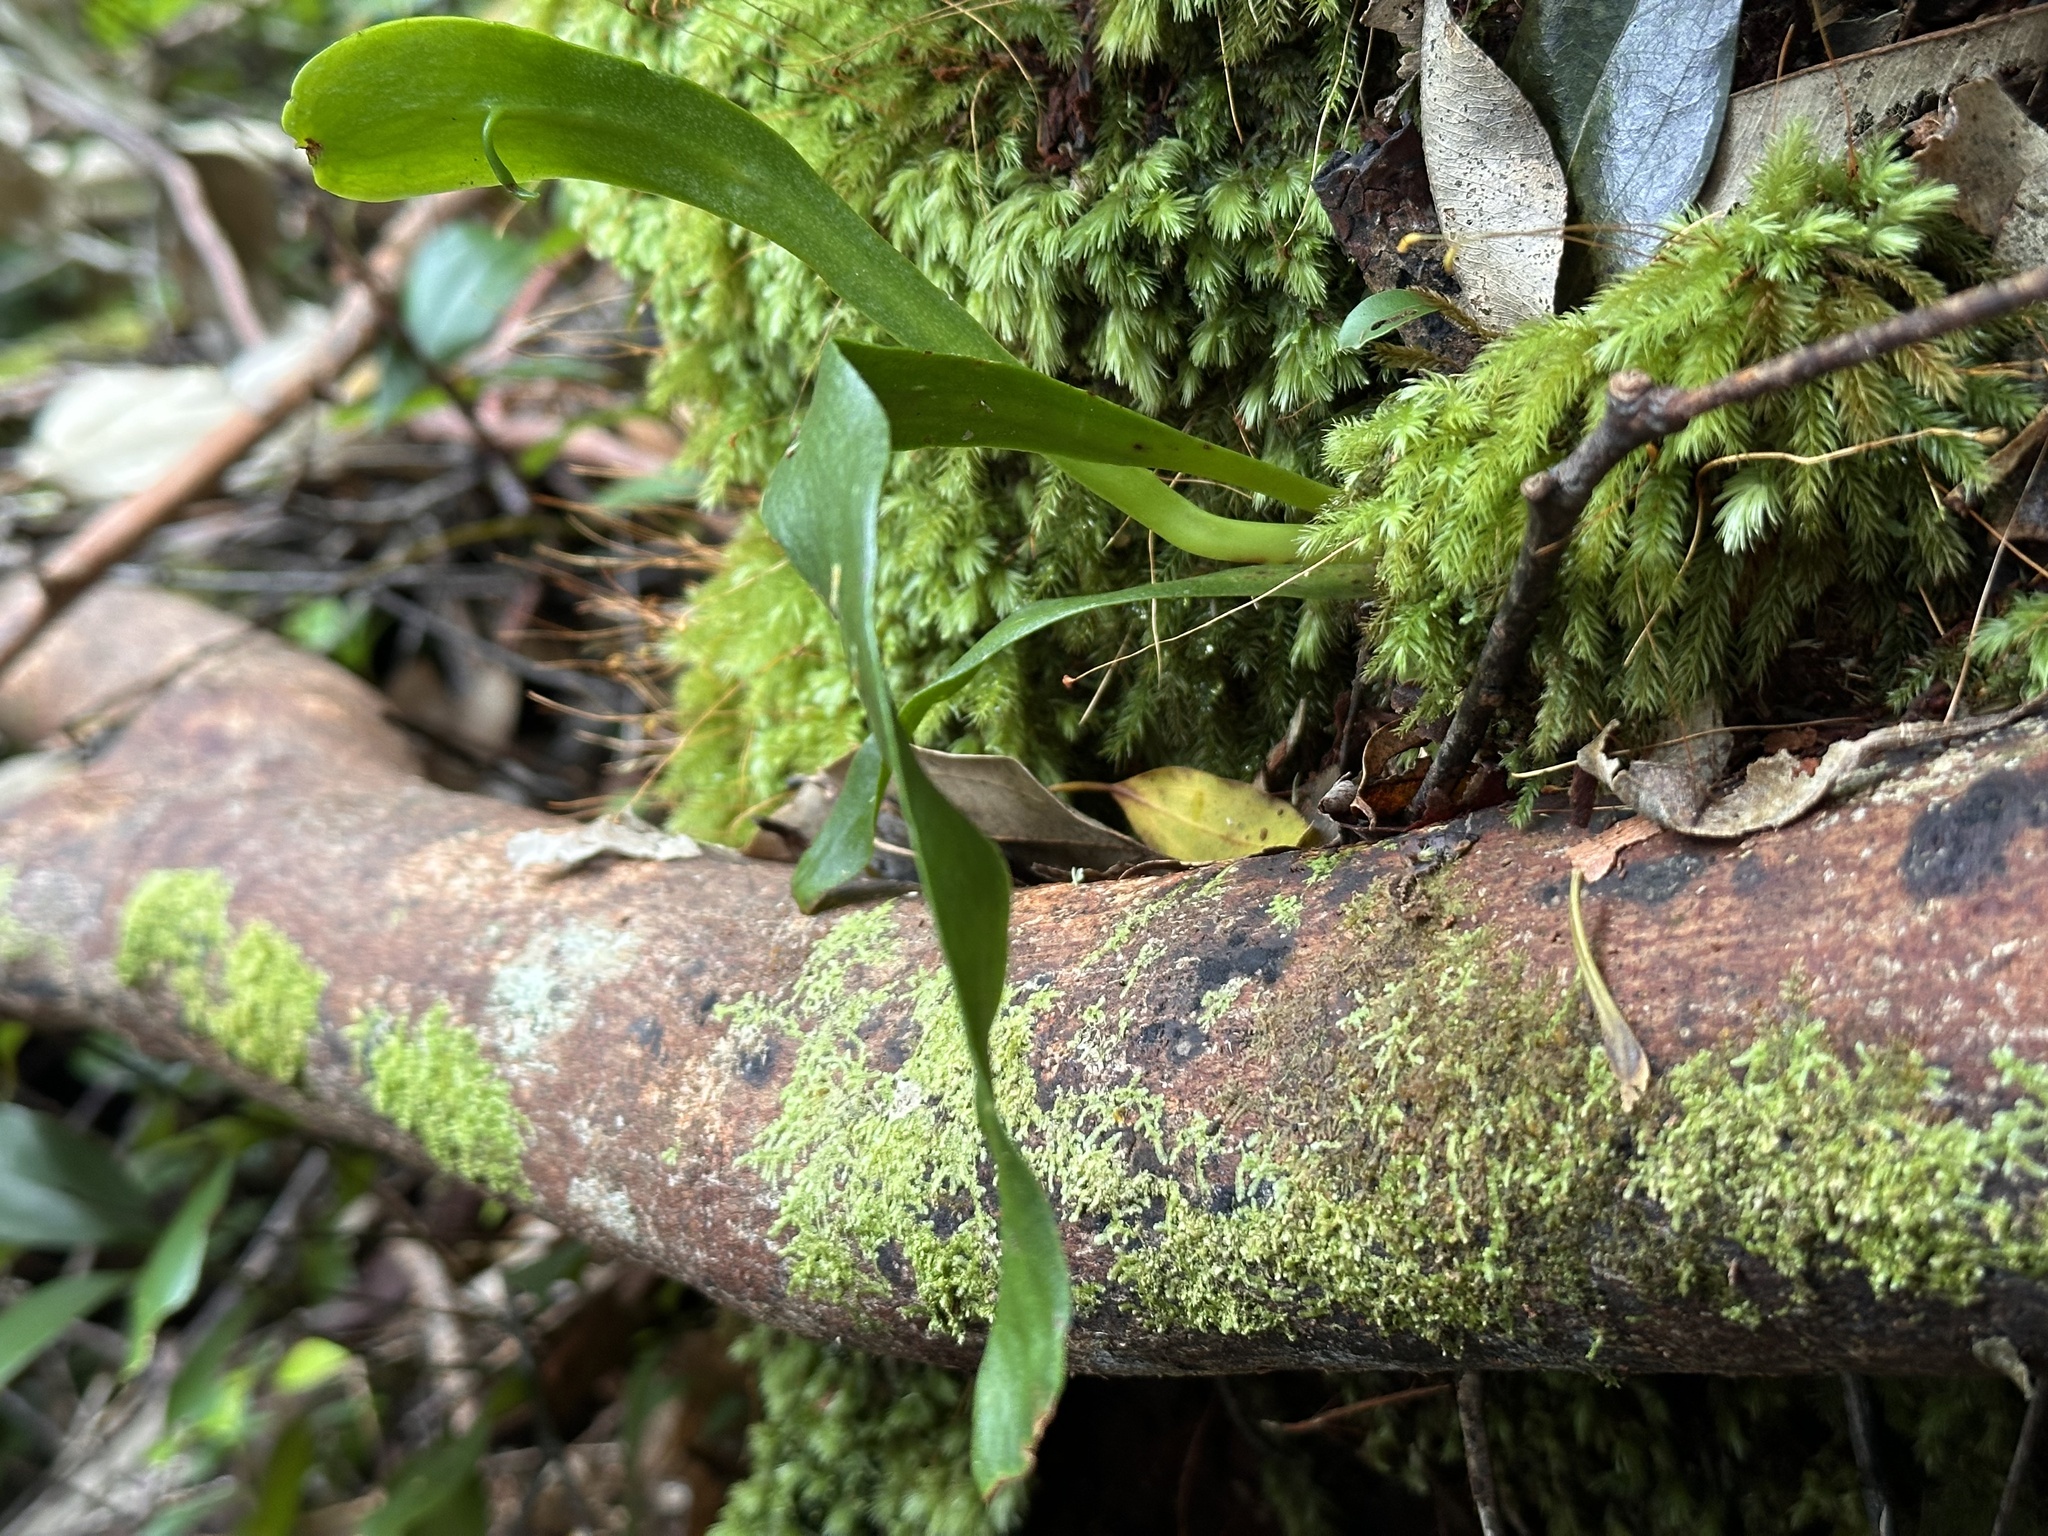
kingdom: Plantae
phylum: Tracheophyta
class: Polypodiopsida
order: Ophioglossales
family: Ophioglossaceae
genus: Ophioderma
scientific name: Ophioderma pendulum
